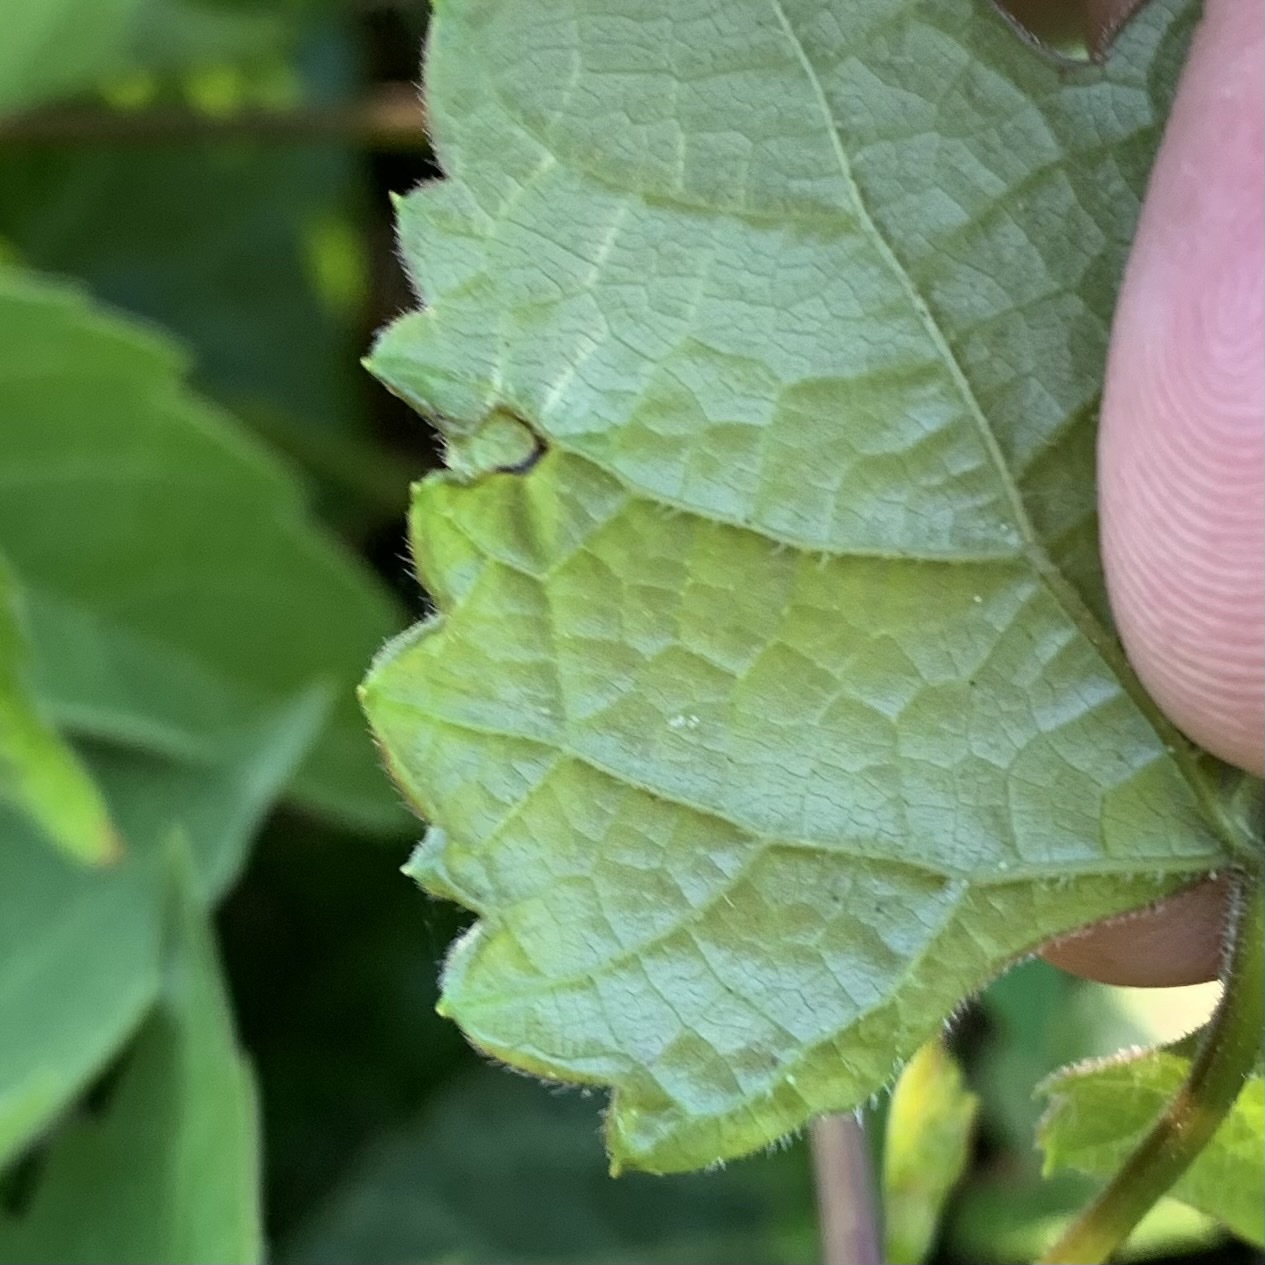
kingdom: Animalia
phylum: Arthropoda
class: Insecta
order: Lepidoptera
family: Gracillariidae
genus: Phyllocnistis
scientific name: Phyllocnistis vitegenella
